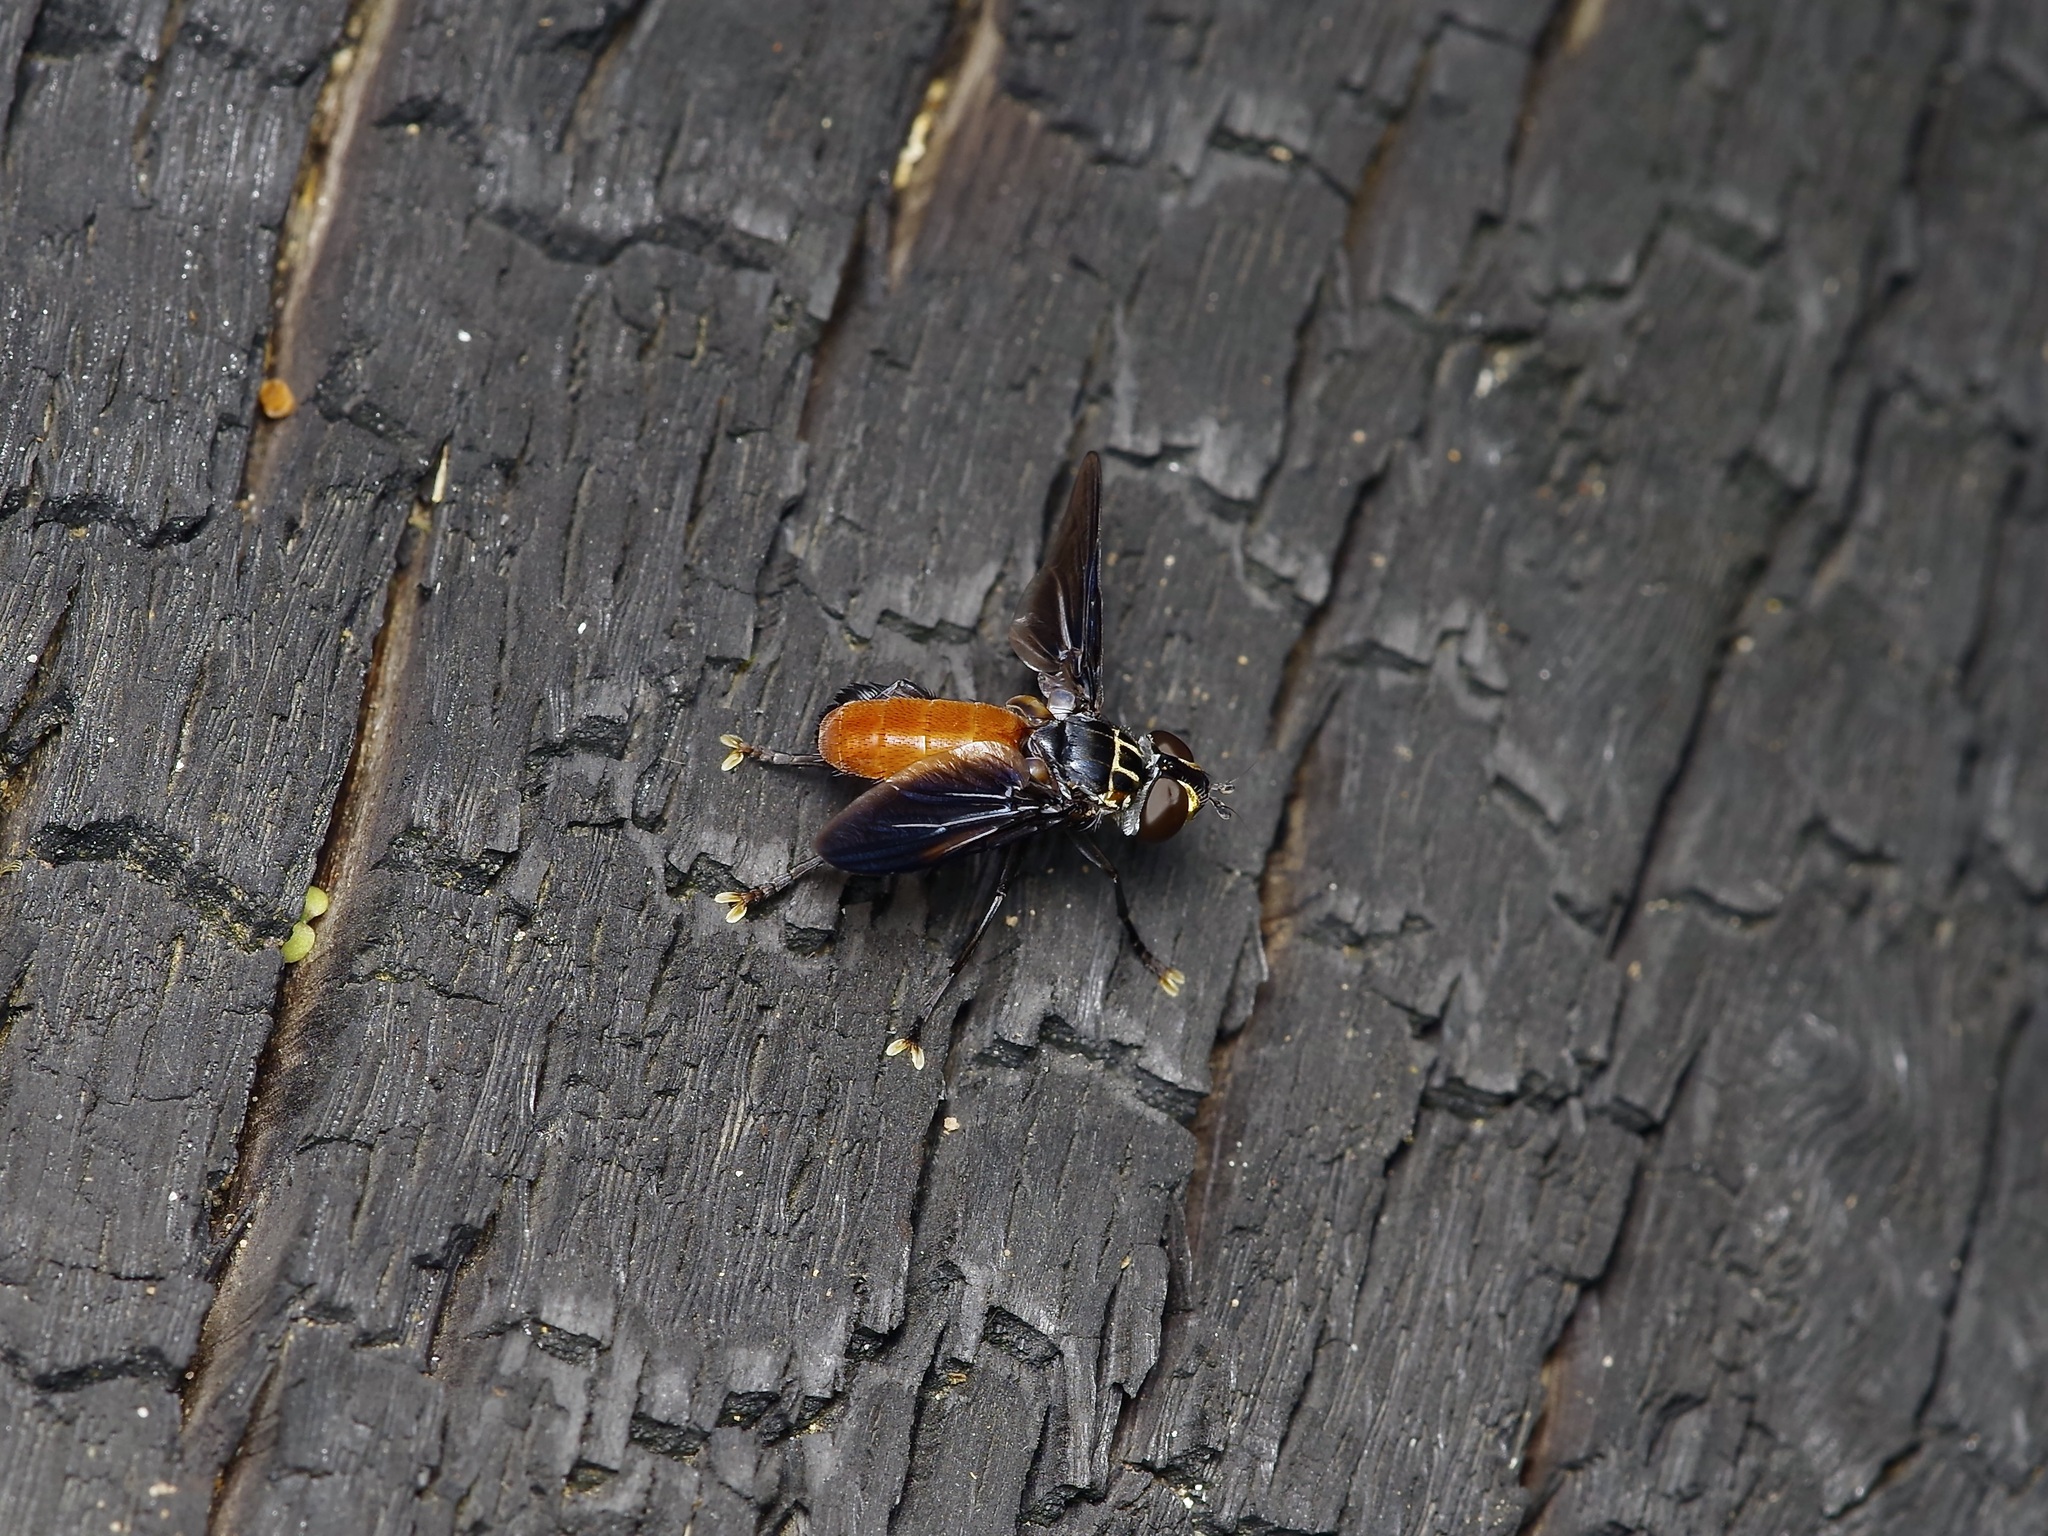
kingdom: Animalia
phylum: Arthropoda
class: Insecta
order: Diptera
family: Tachinidae
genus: Trichopoda
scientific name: Trichopoda pennipes
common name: Tachinid fly
